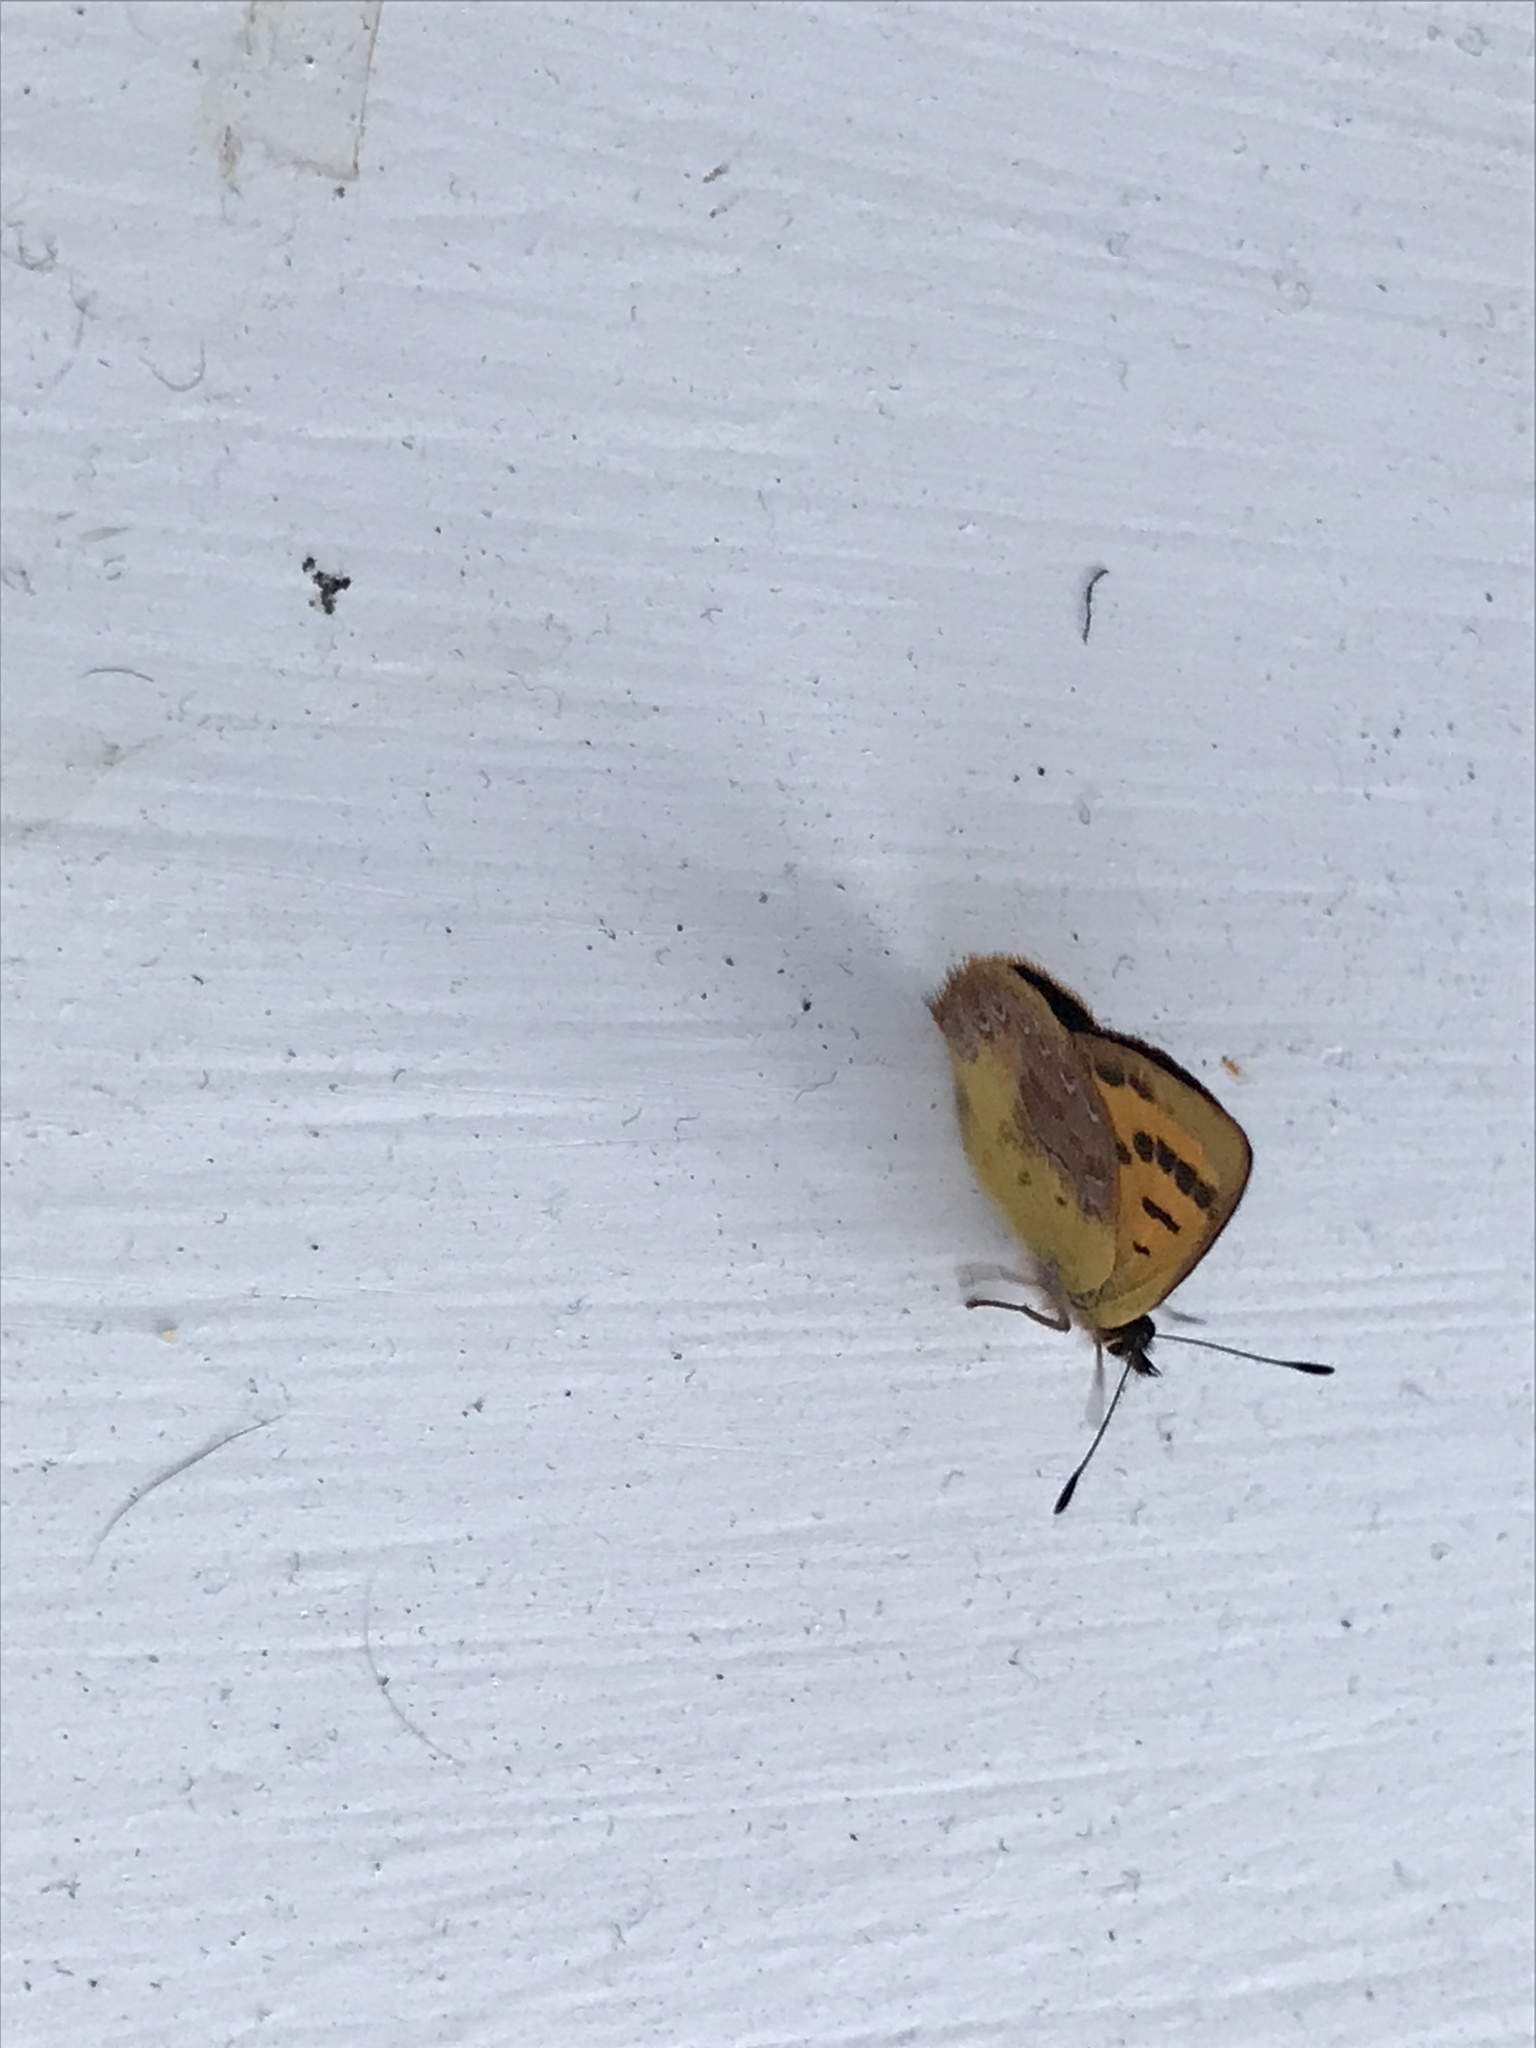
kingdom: Animalia
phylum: Arthropoda
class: Insecta
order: Lepidoptera
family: Lycaenidae
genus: Lycaena
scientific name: Lycaena
